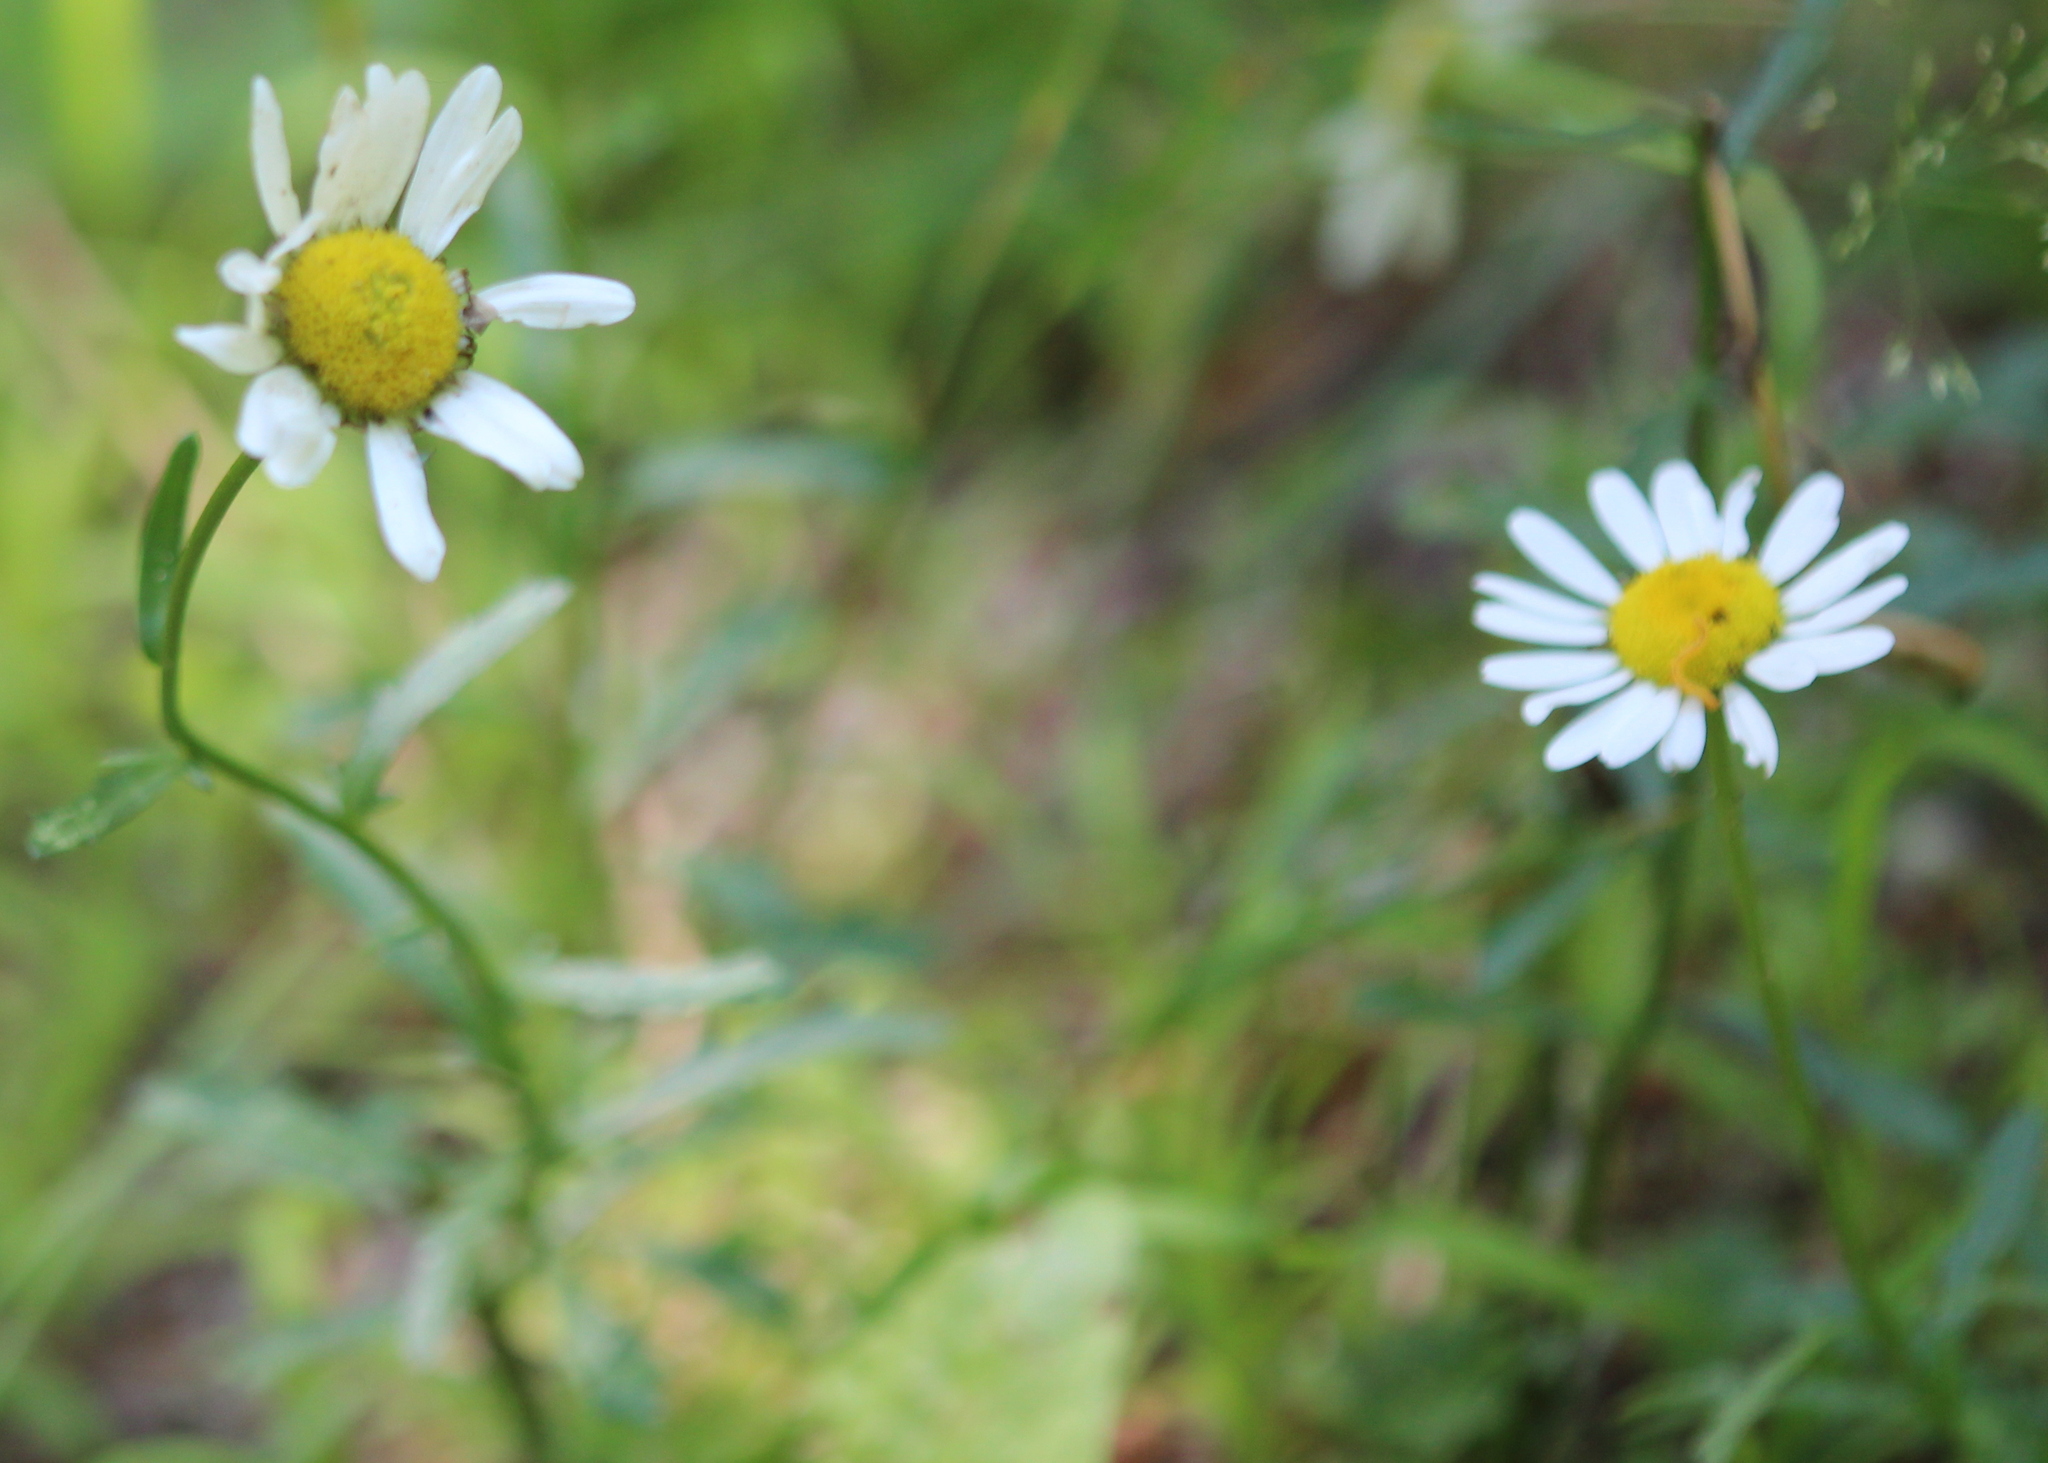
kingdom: Plantae
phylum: Tracheophyta
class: Magnoliopsida
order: Asterales
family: Asteraceae
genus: Leucanthemum
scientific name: Leucanthemum vulgare
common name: Oxeye daisy
